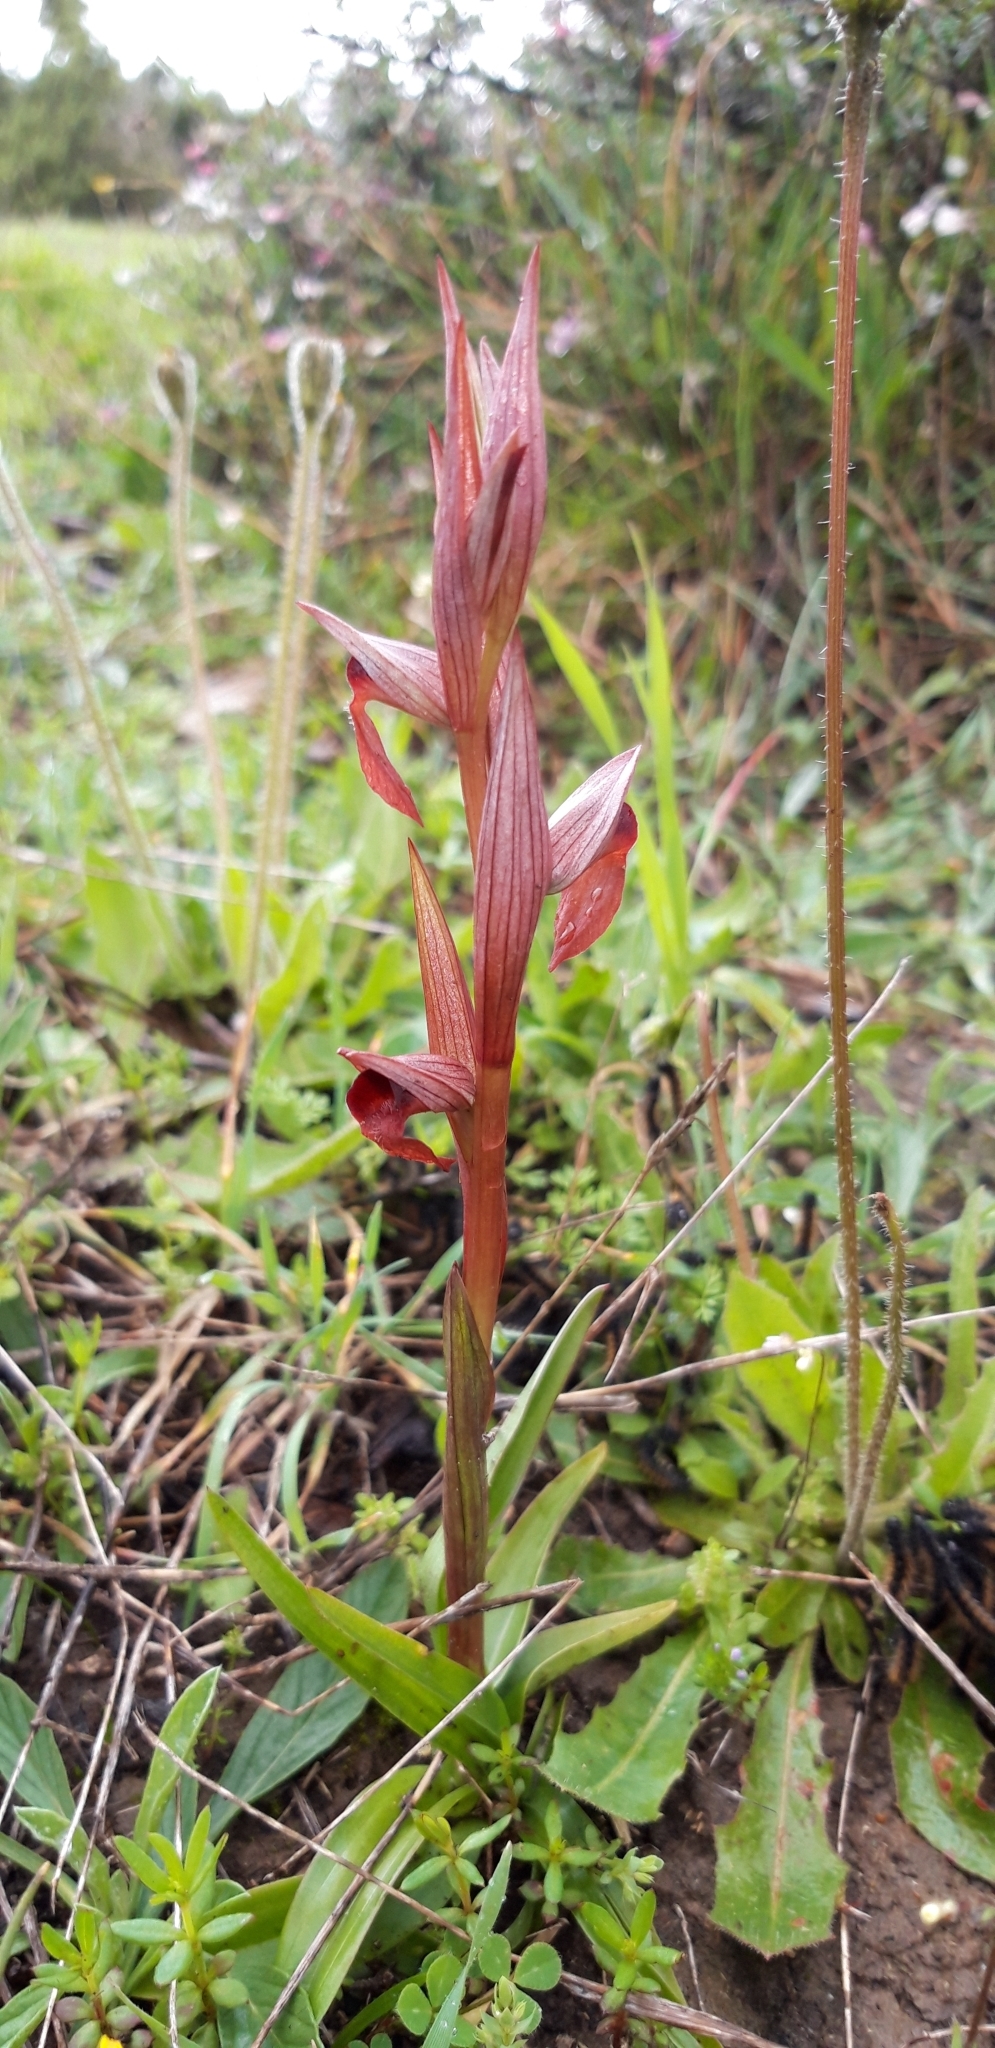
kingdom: Plantae
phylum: Tracheophyta
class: Liliopsida
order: Asparagales
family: Orchidaceae
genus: Serapias
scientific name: Serapias bergonii
